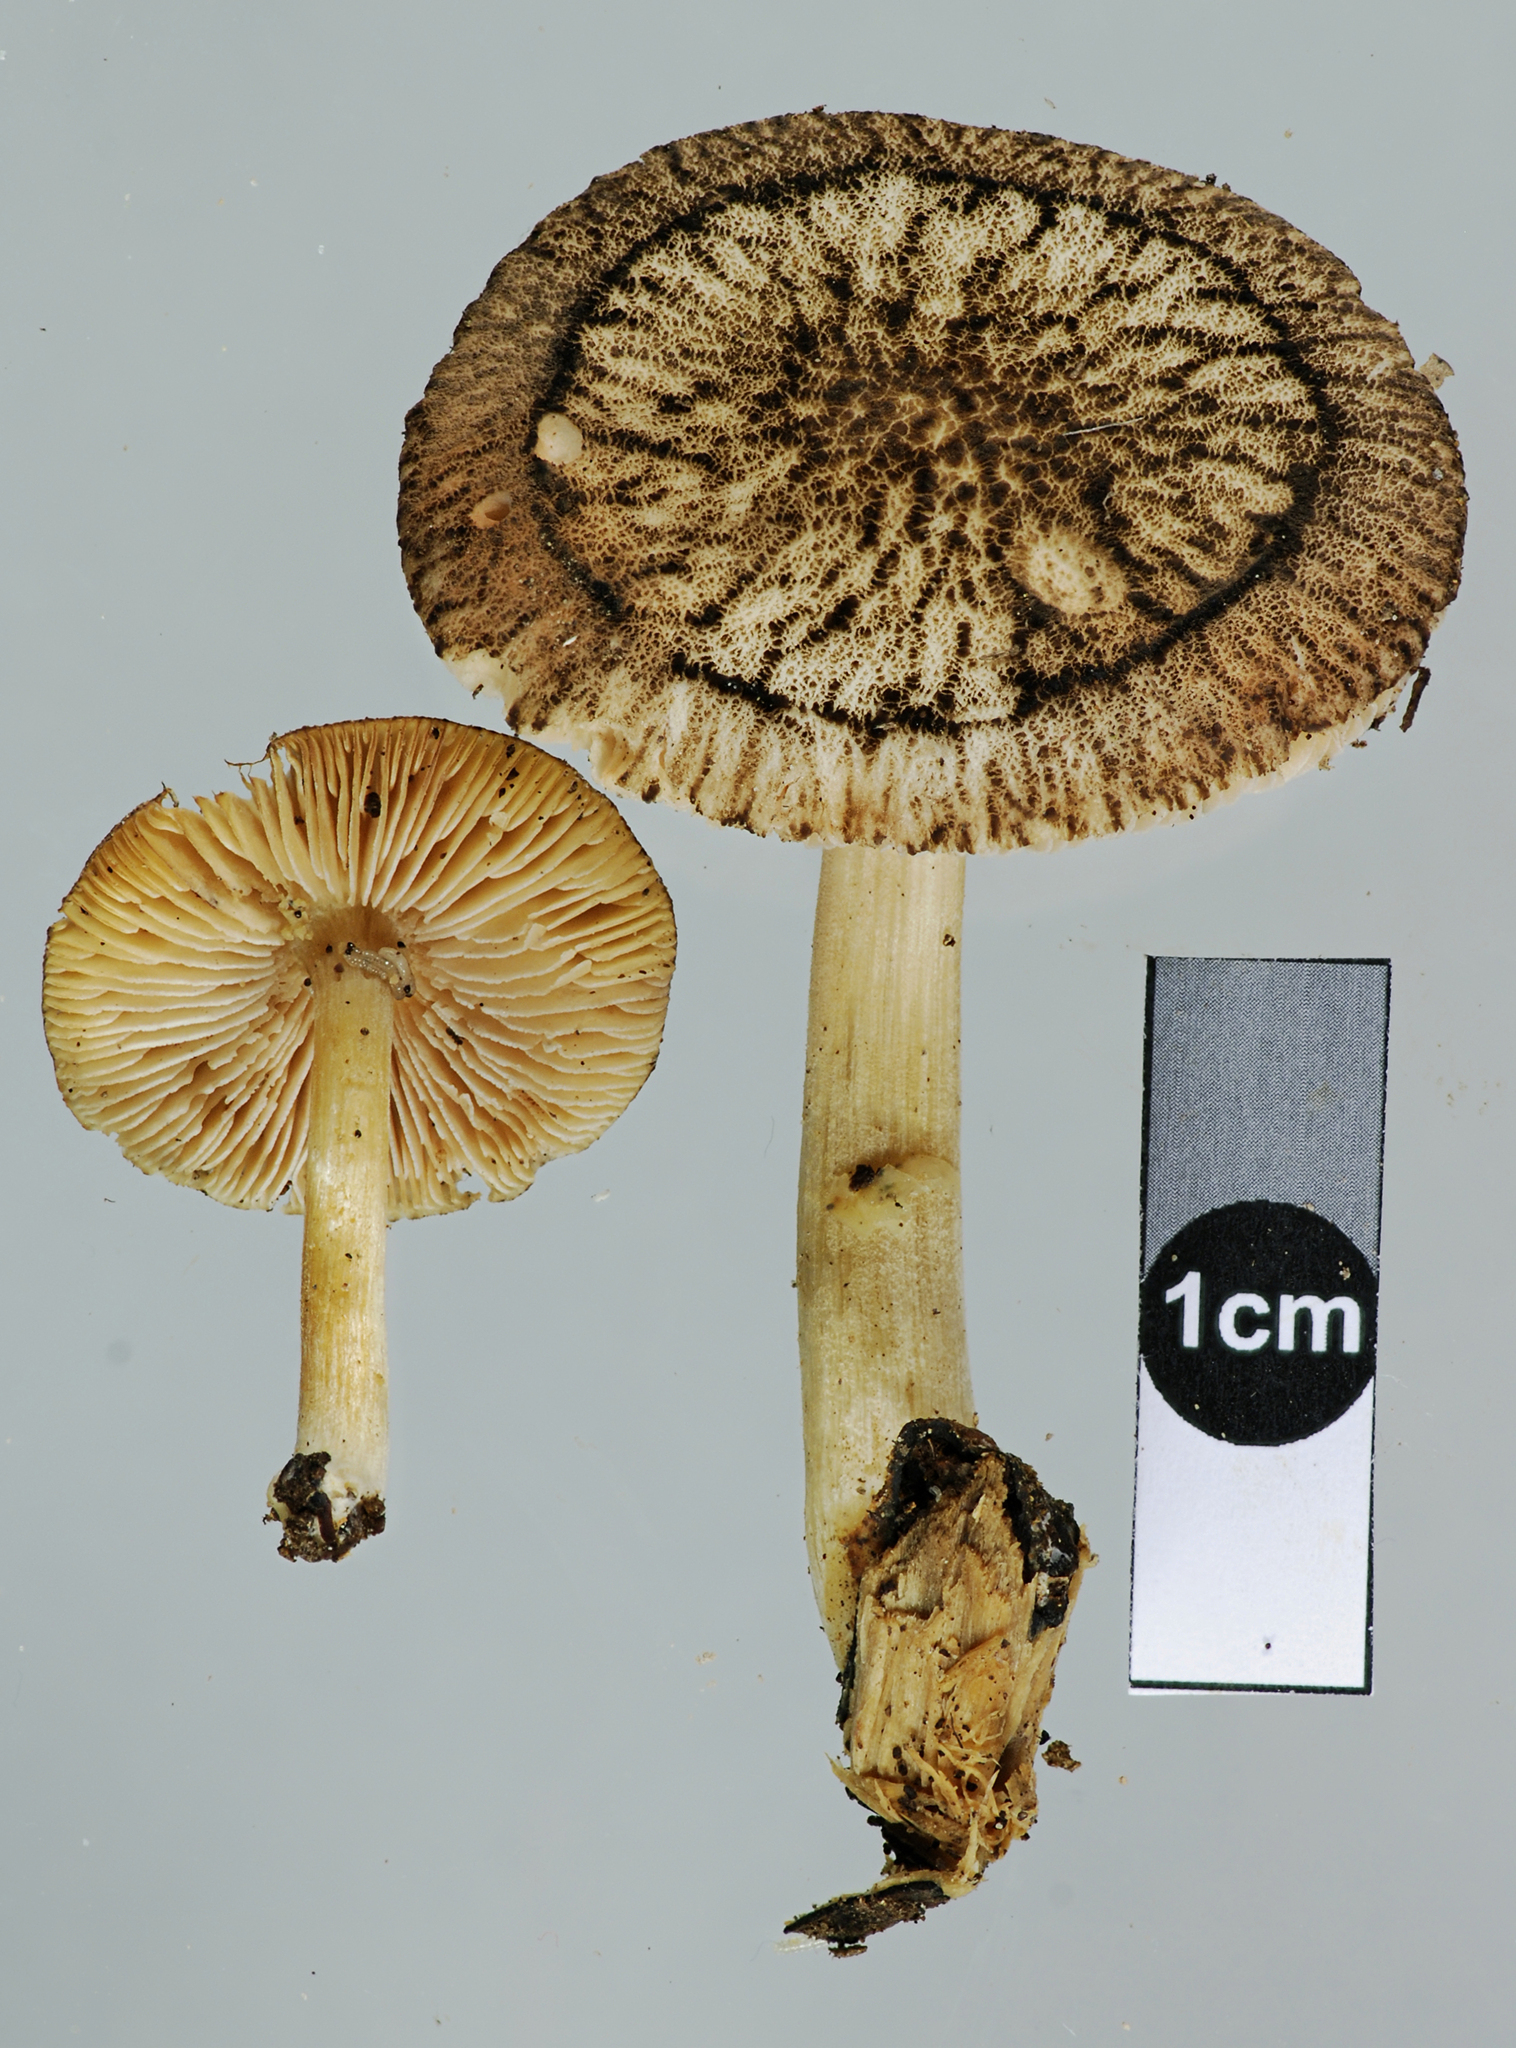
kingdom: Fungi
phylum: Basidiomycota
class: Agaricomycetes
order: Agaricales
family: Pluteaceae
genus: Pluteus
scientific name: Pluteus readiarum
